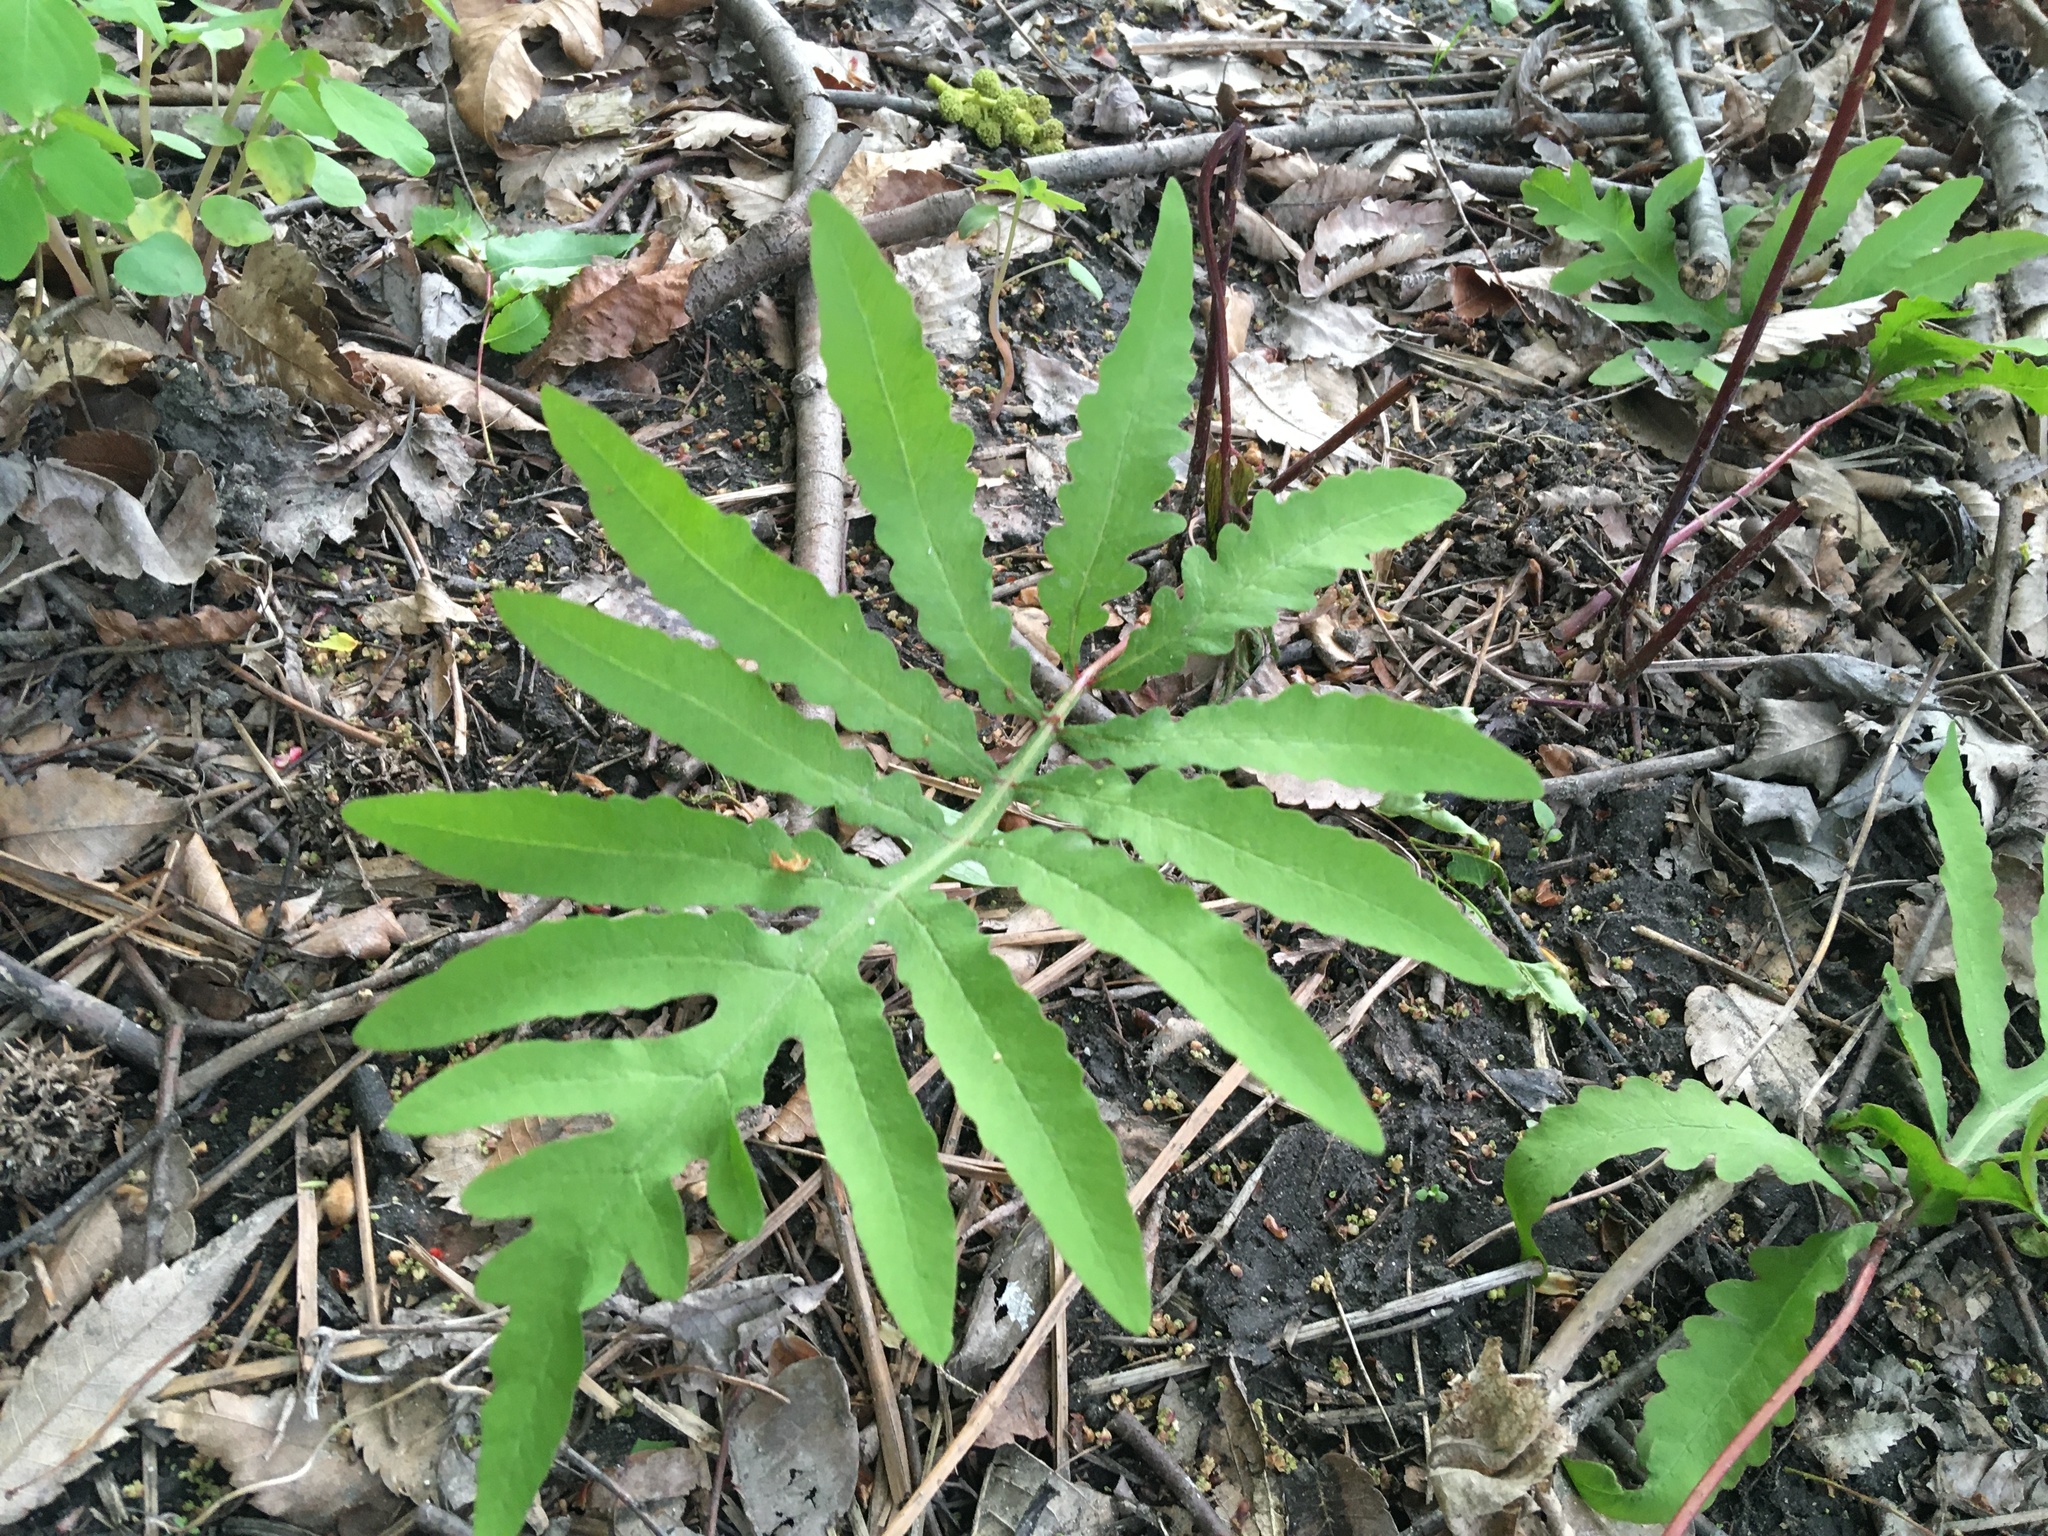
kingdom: Plantae
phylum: Tracheophyta
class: Polypodiopsida
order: Polypodiales
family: Onocleaceae
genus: Onoclea
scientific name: Onoclea sensibilis
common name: Sensitive fern
